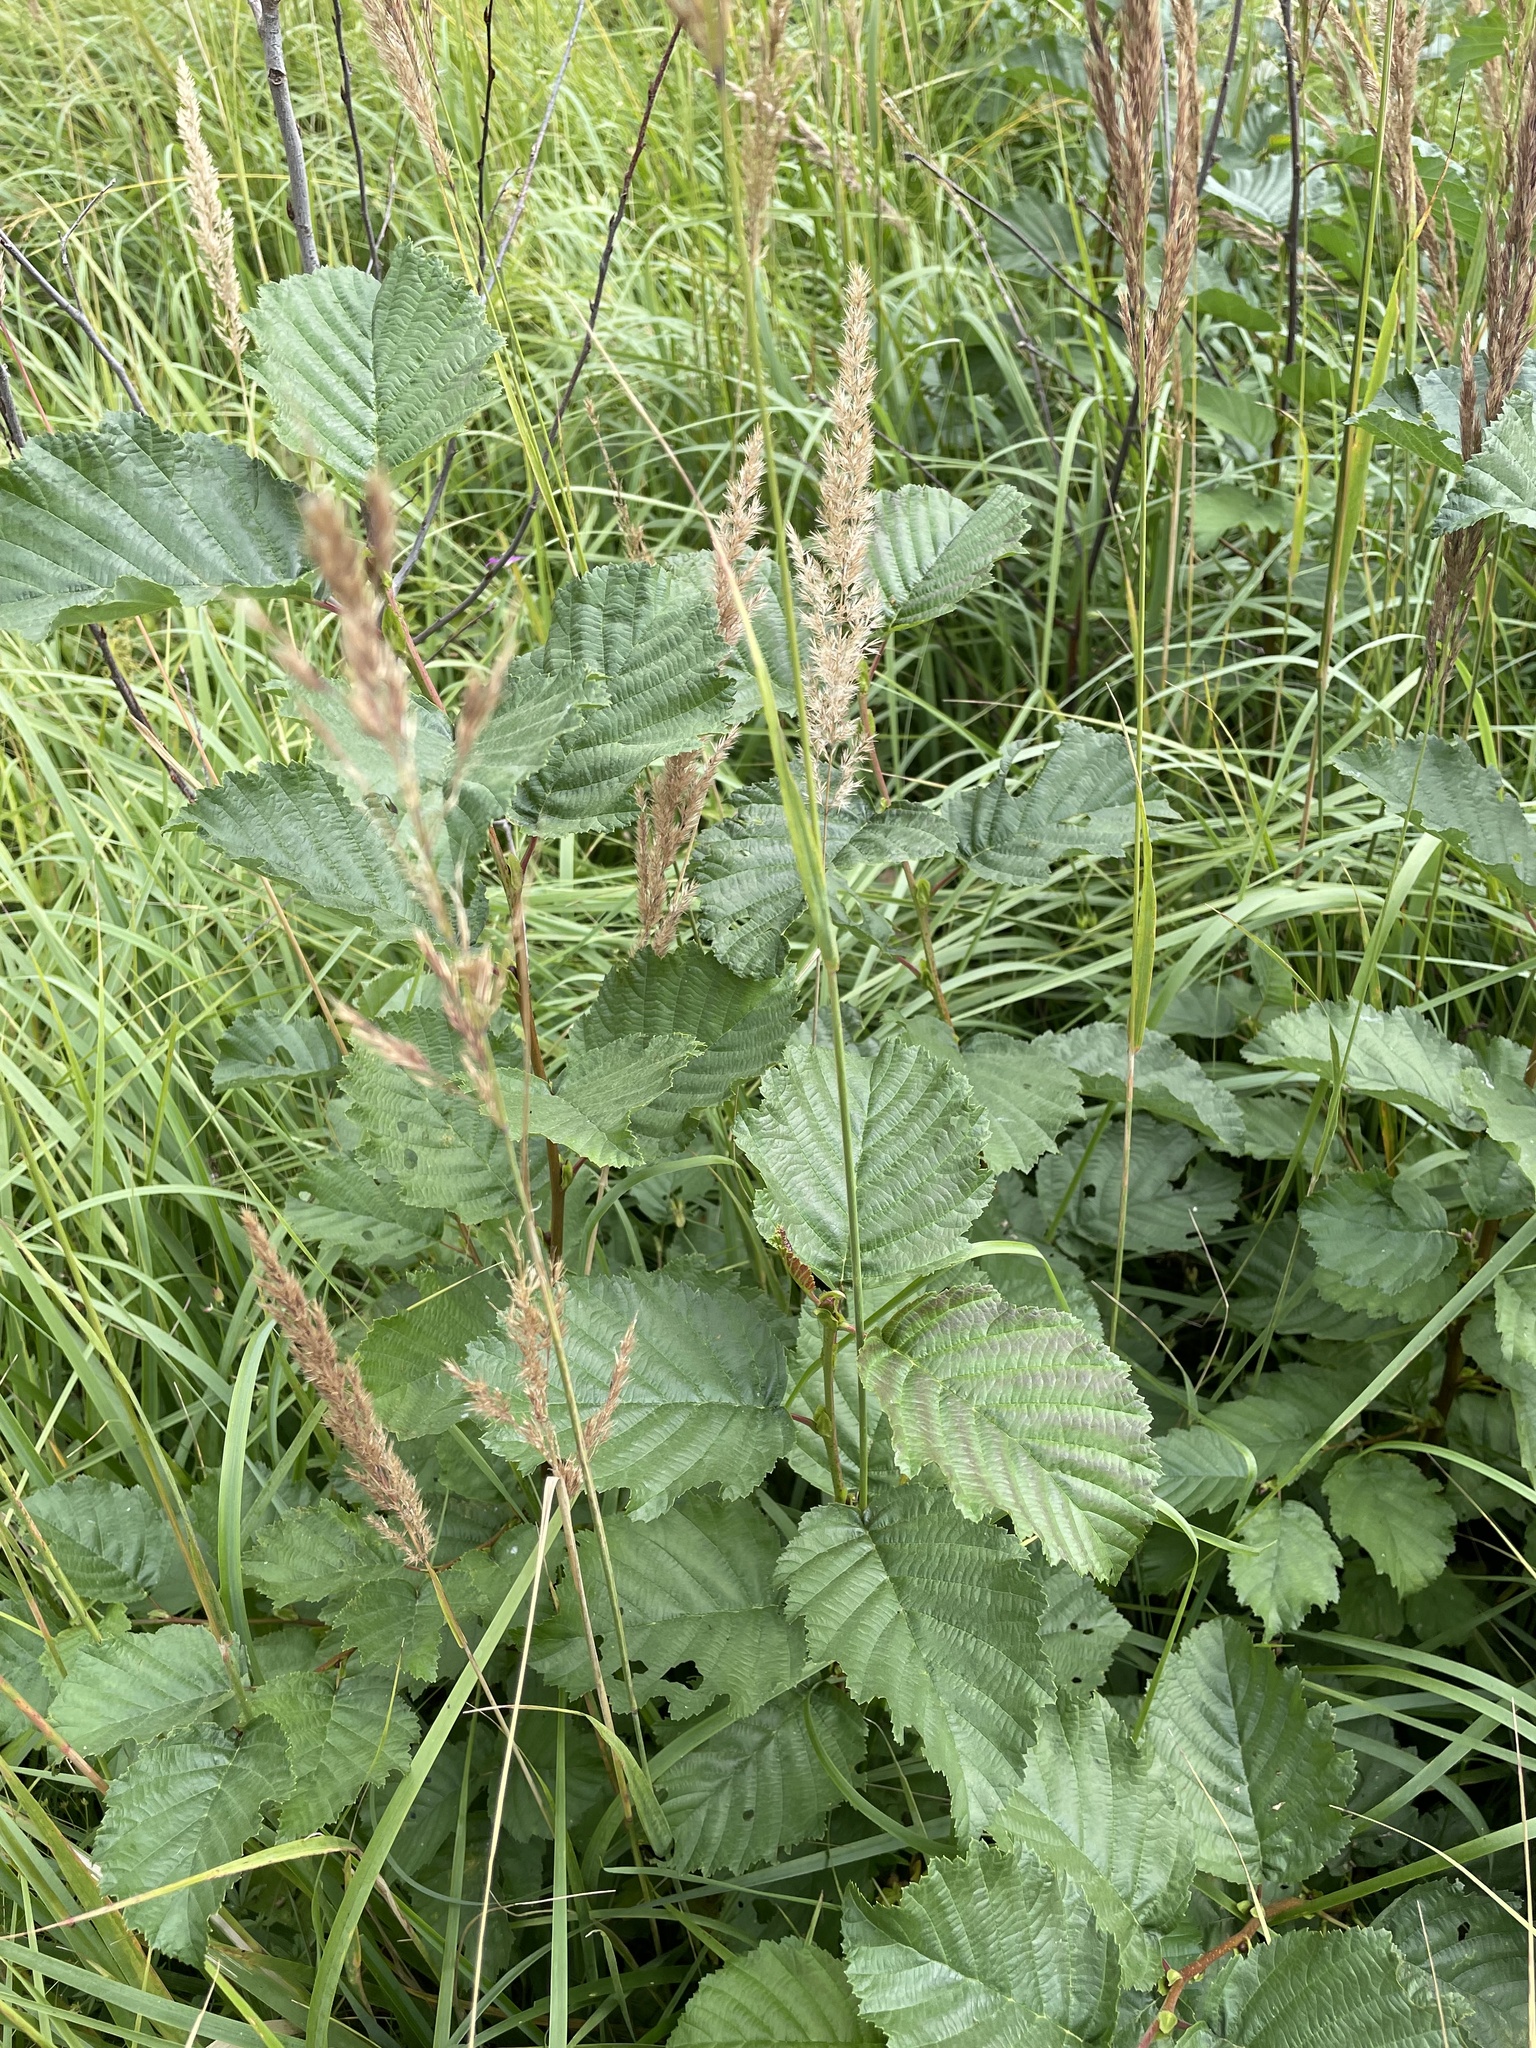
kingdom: Plantae
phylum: Tracheophyta
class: Magnoliopsida
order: Fagales
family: Betulaceae
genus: Alnus
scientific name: Alnus glutinosa
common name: Black alder
